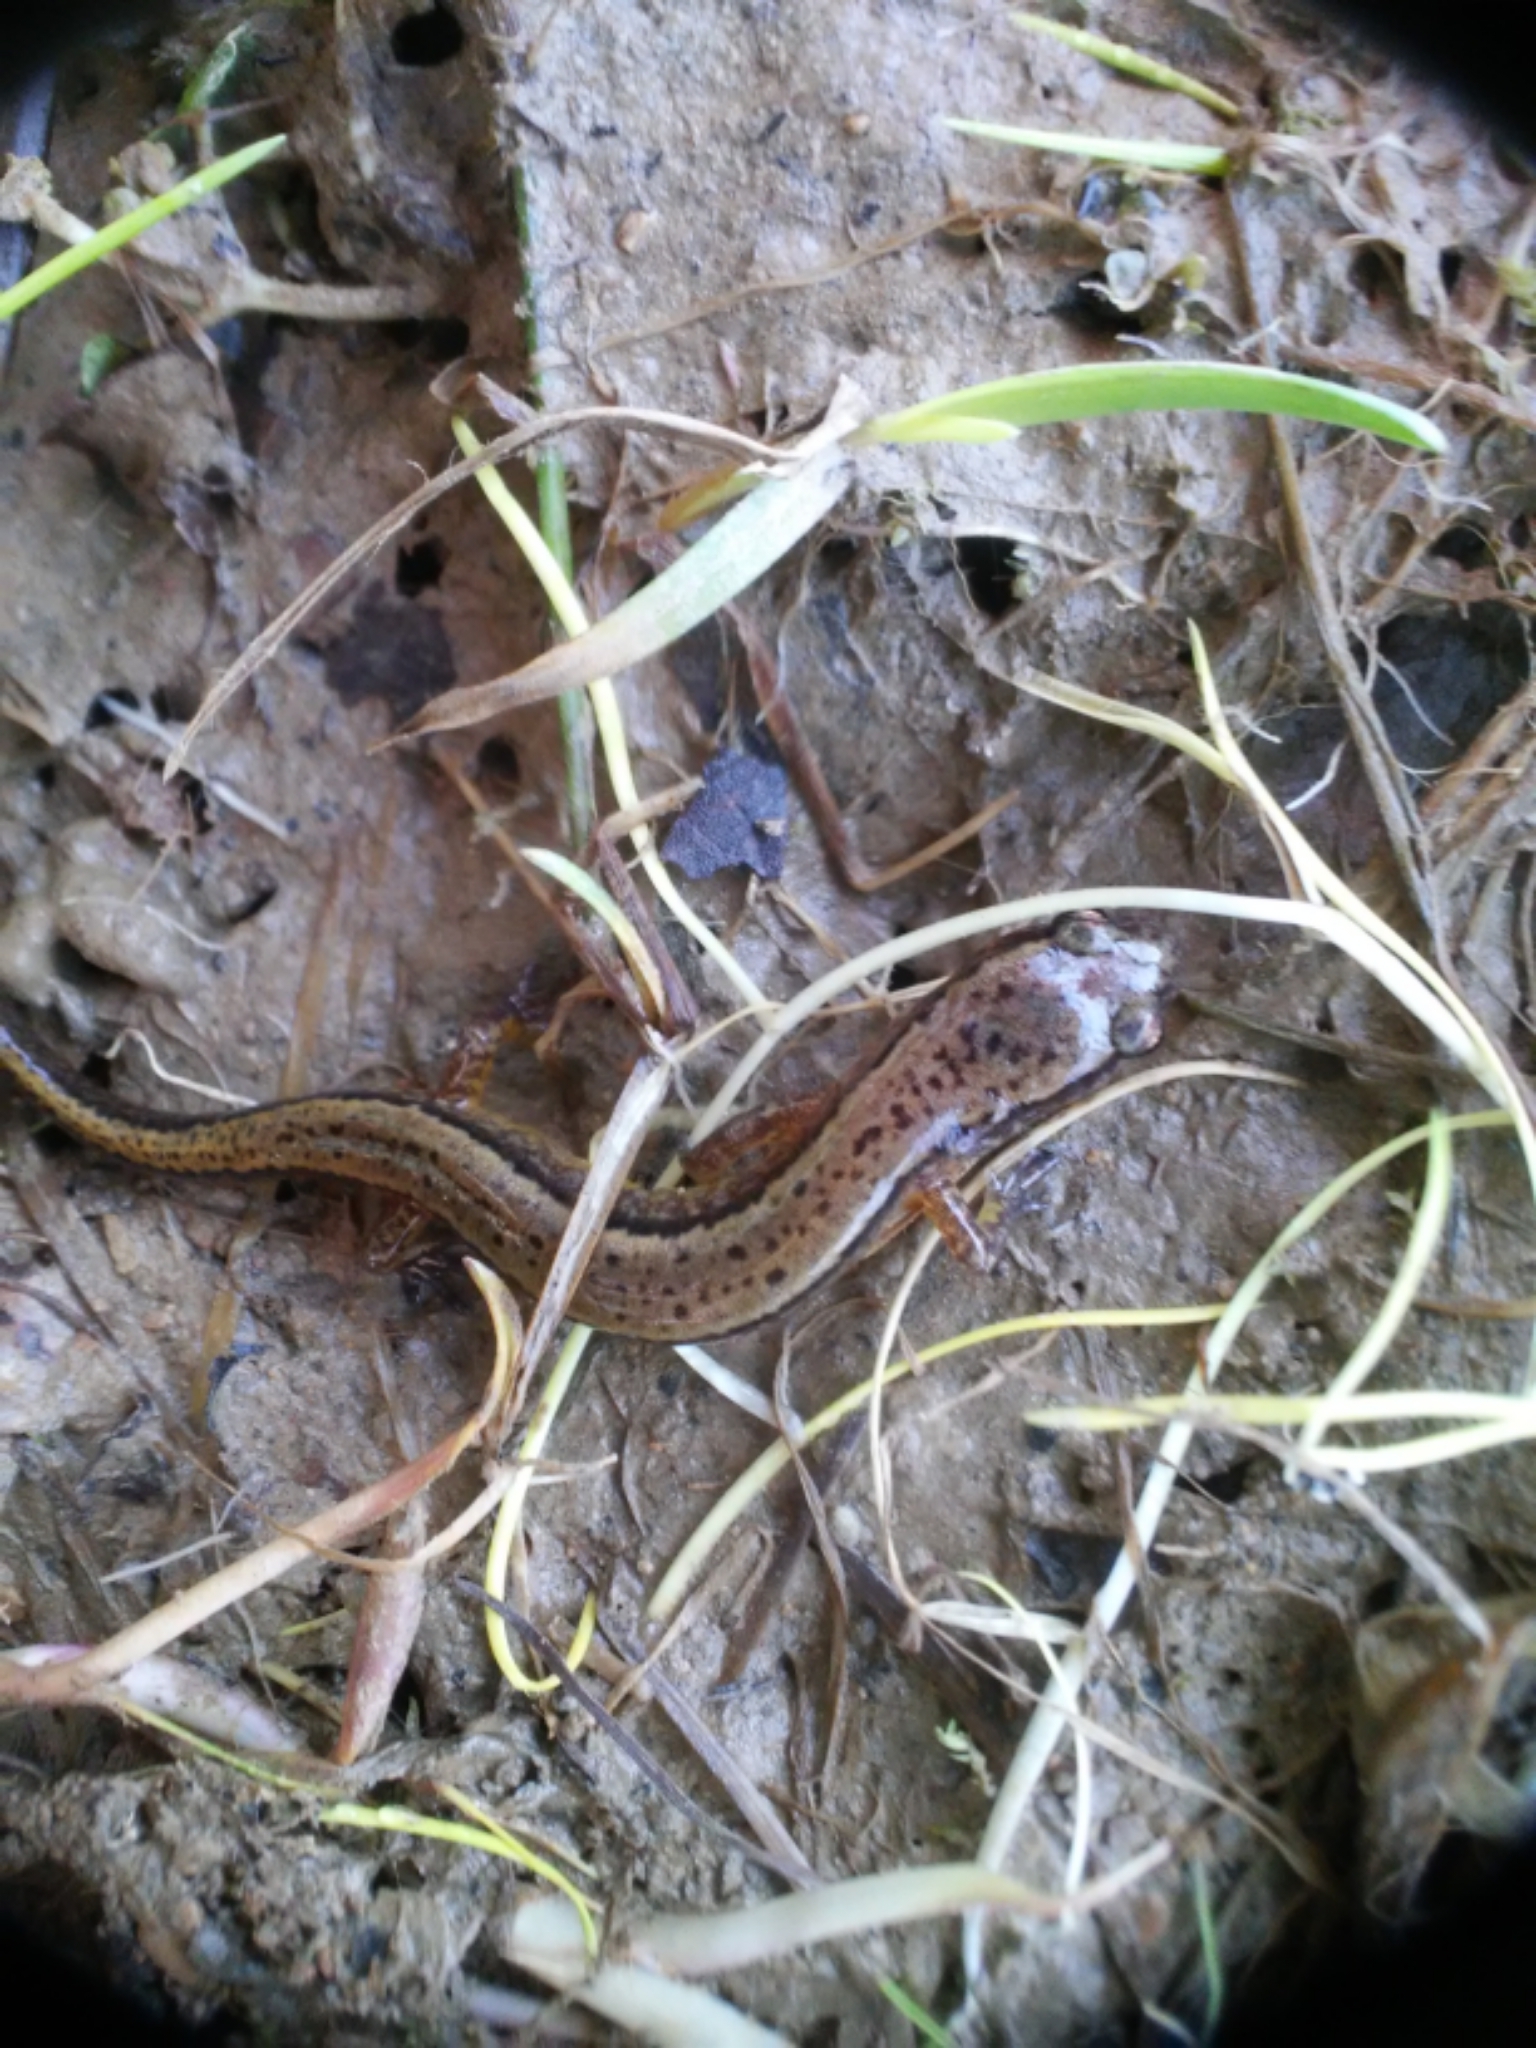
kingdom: Animalia
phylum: Chordata
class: Amphibia
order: Caudata
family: Plethodontidae
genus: Eurycea
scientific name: Eurycea cirrigera
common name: Southern two-lined salamander
